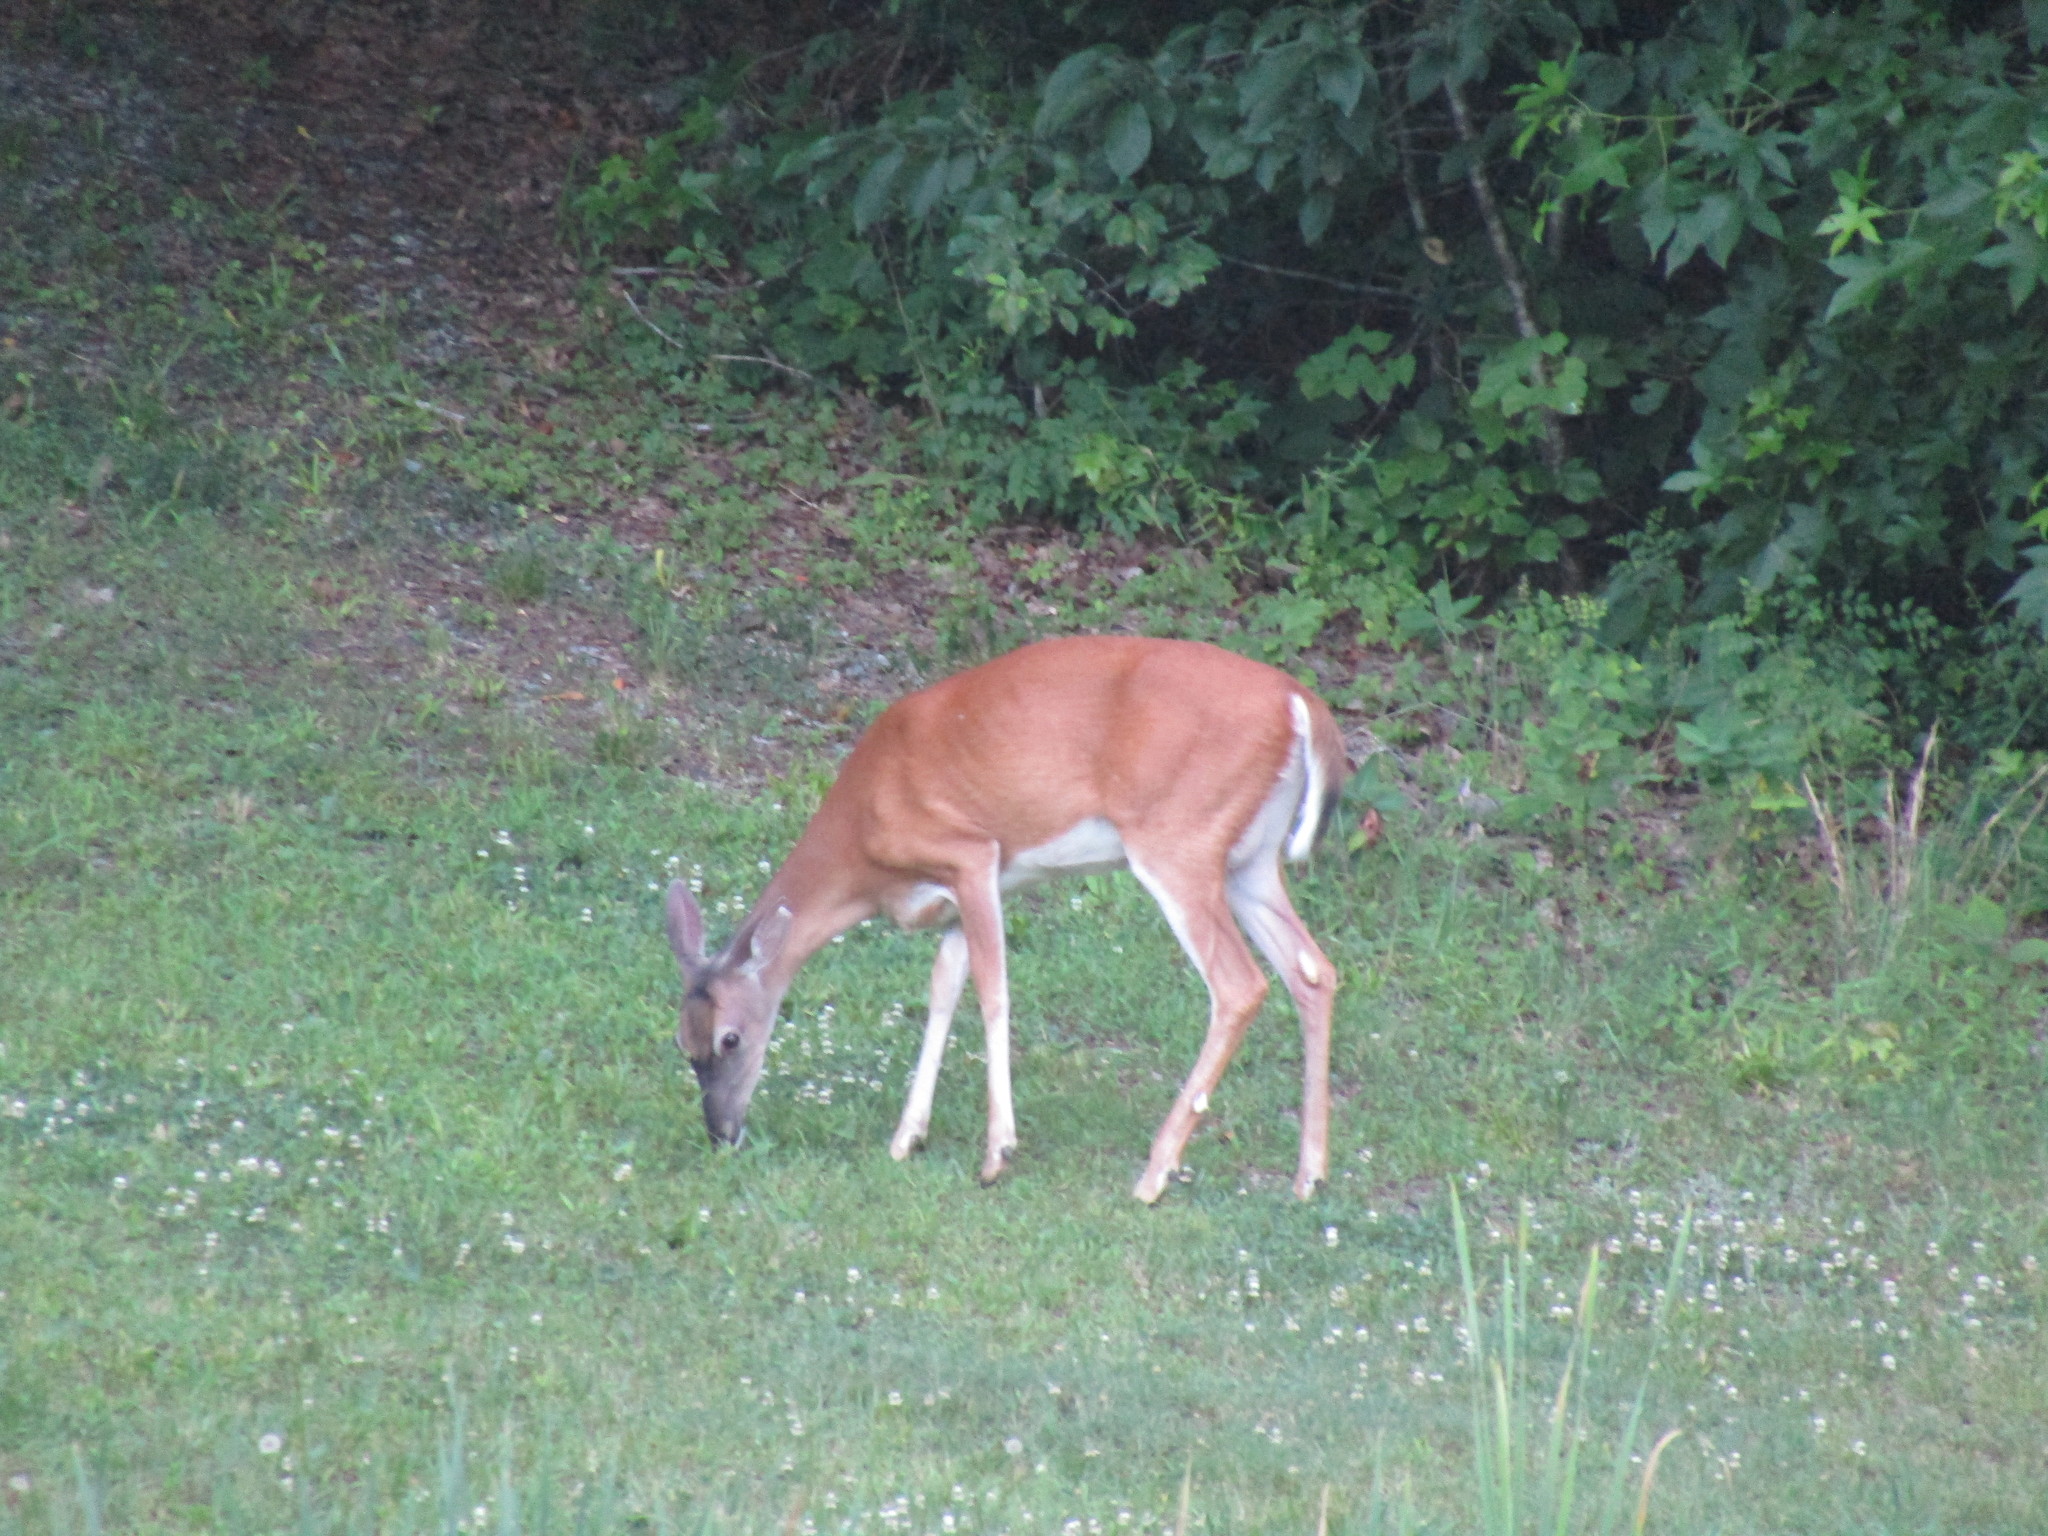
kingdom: Animalia
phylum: Chordata
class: Mammalia
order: Artiodactyla
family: Cervidae
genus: Odocoileus
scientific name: Odocoileus virginianus
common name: White-tailed deer
